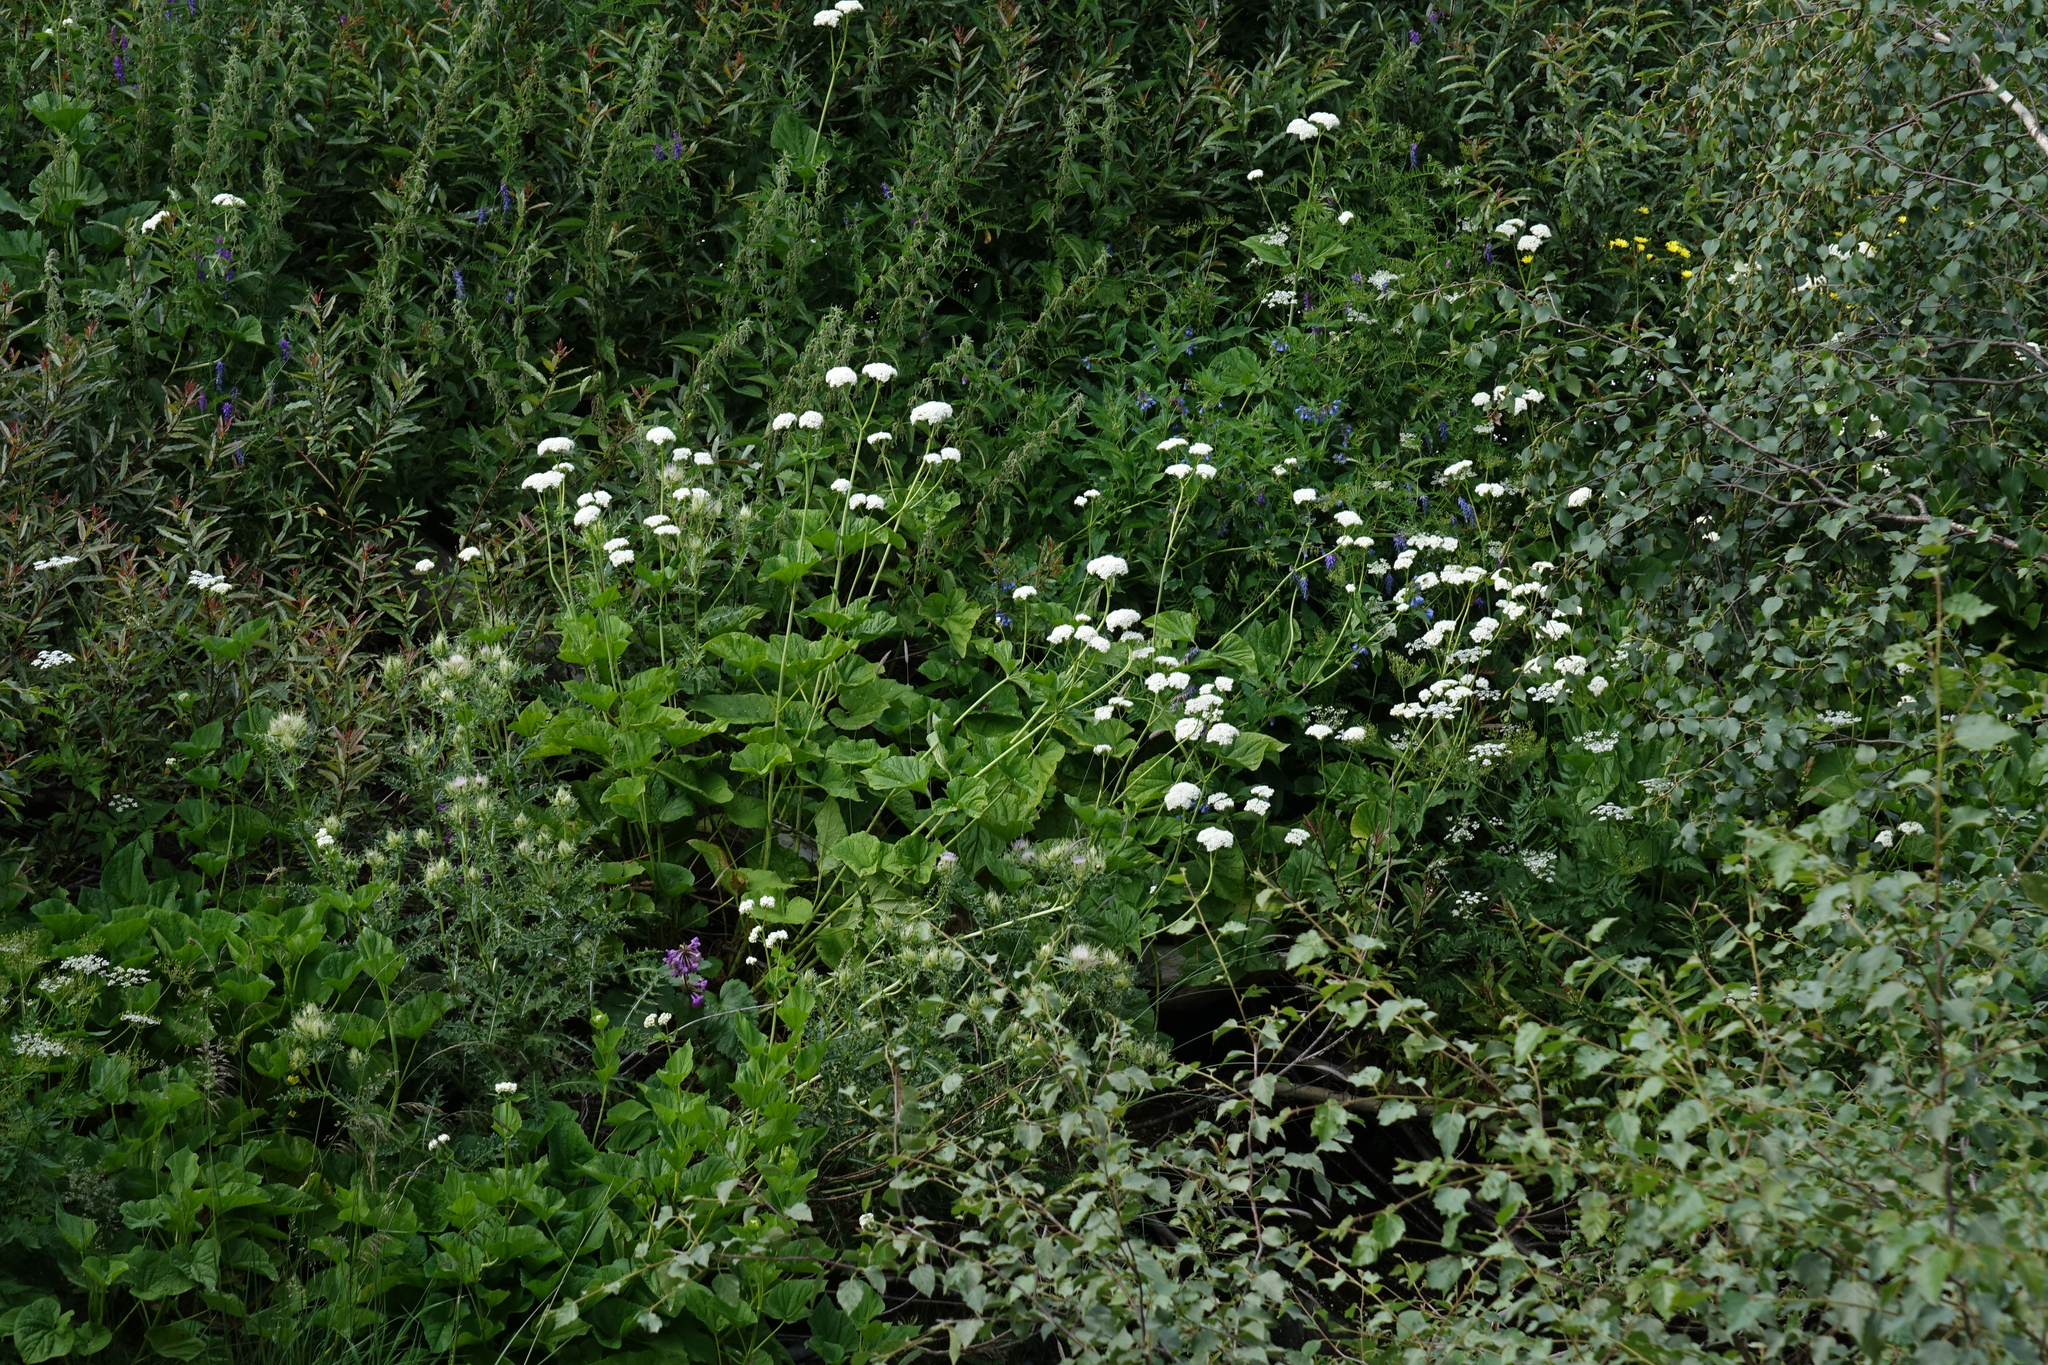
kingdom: Plantae
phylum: Tracheophyta
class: Magnoliopsida
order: Dipsacales
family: Caprifoliaceae
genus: Valeriana
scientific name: Valeriana alliariifolia
